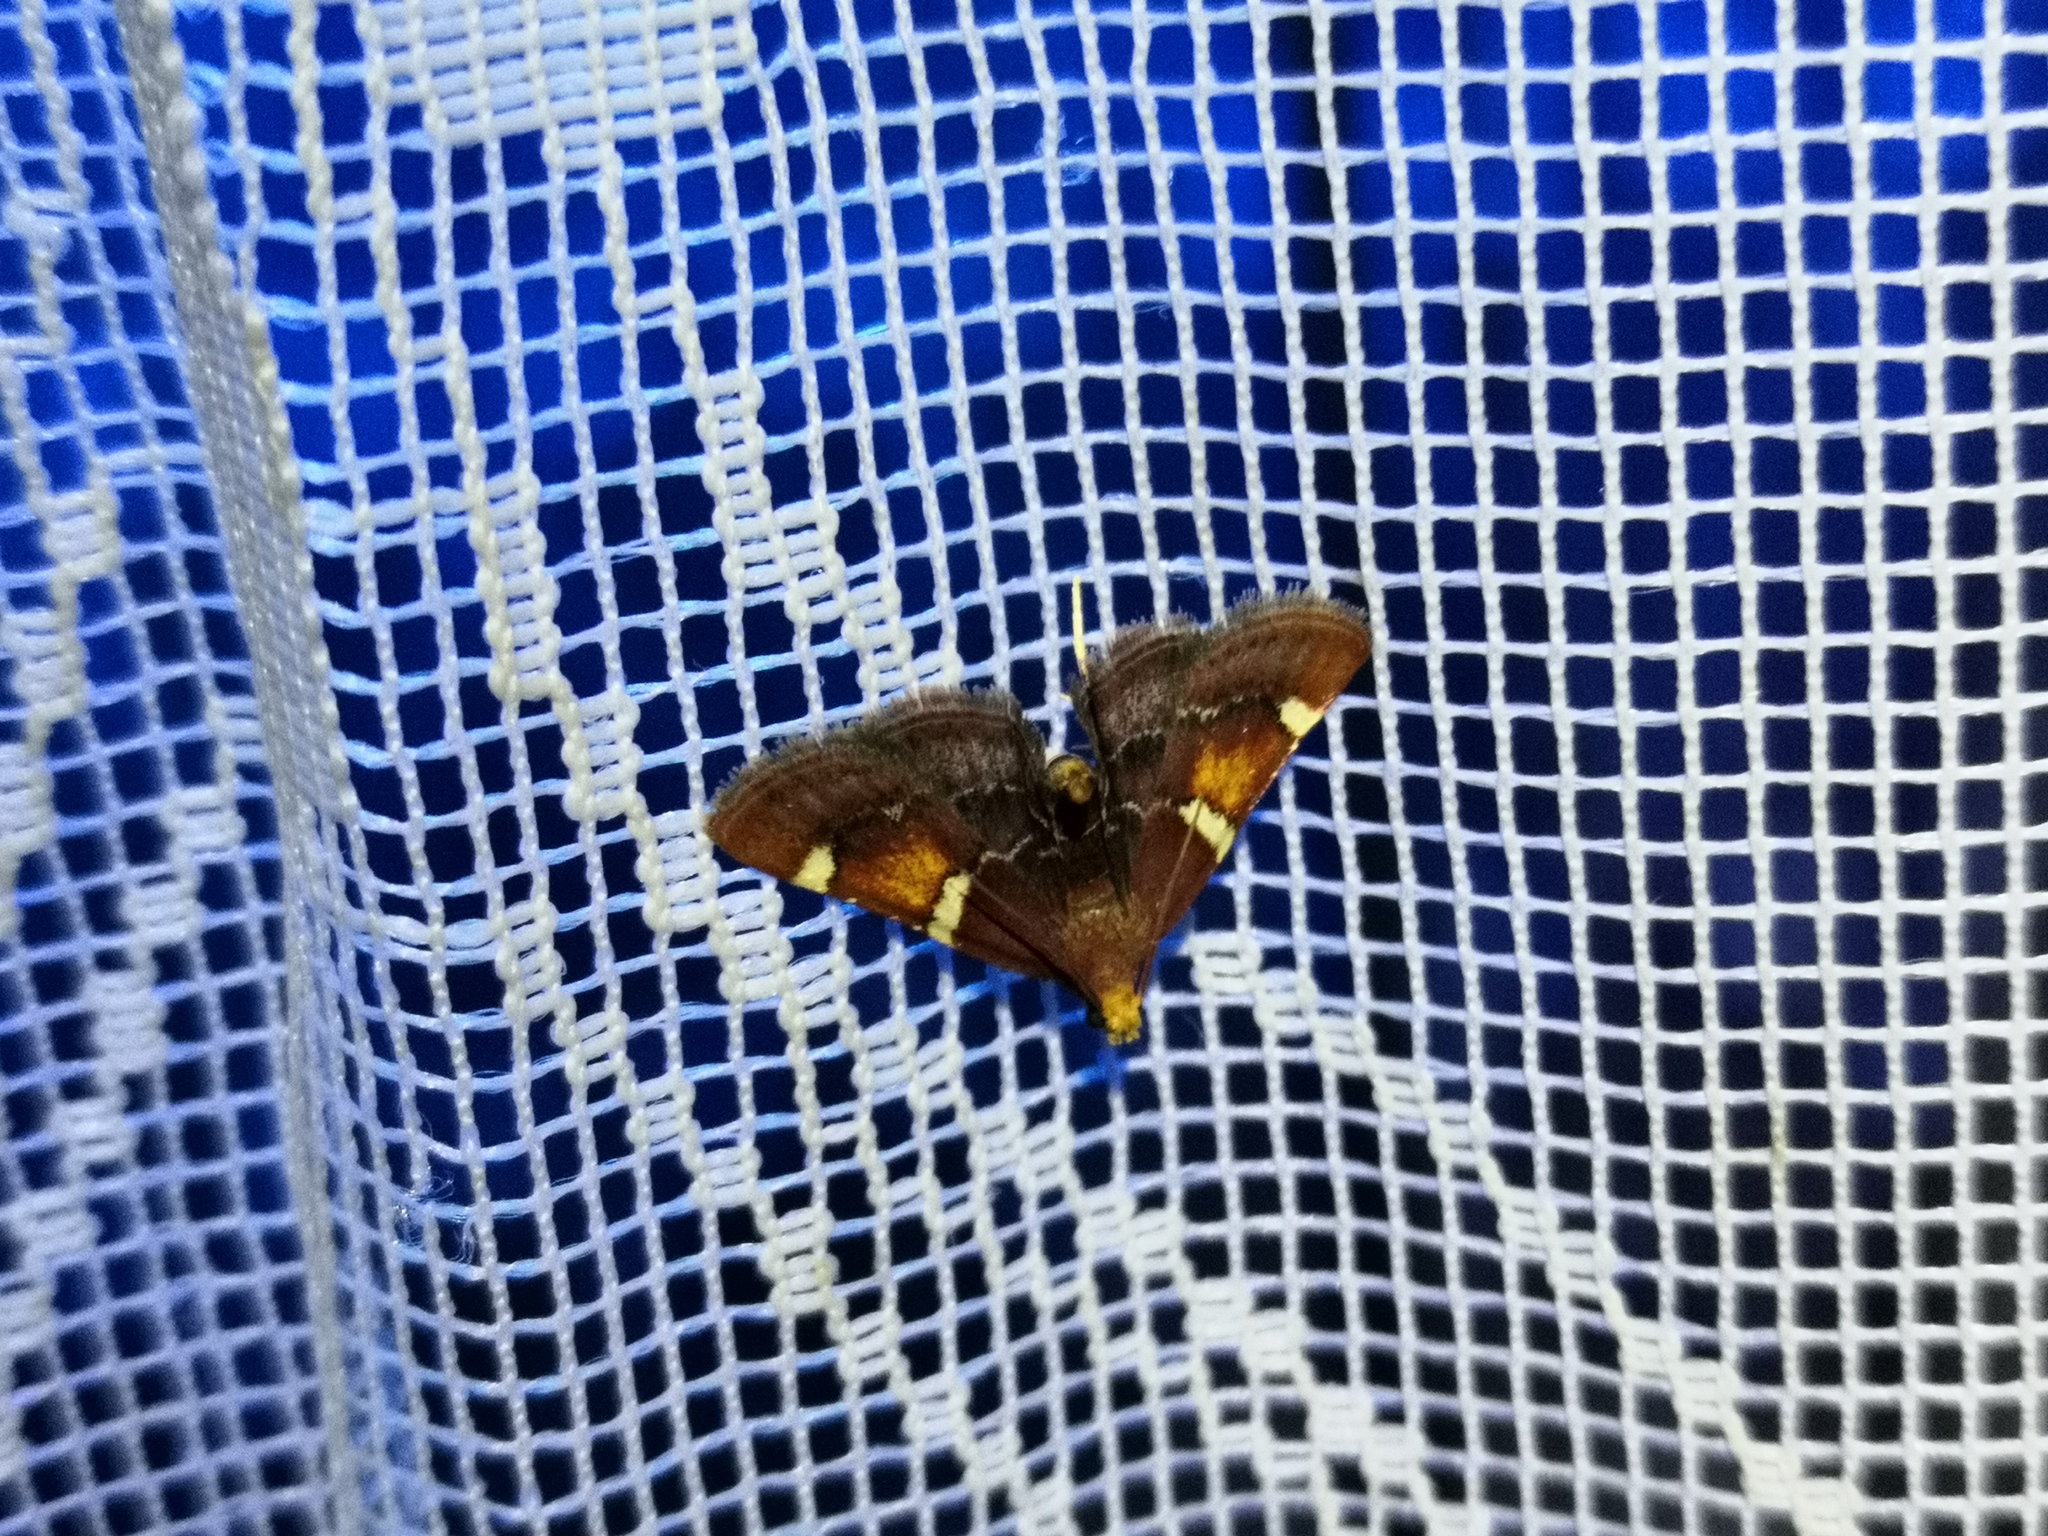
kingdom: Animalia
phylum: Arthropoda
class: Insecta
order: Lepidoptera
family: Pyralidae
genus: Pyralis
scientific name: Pyralis regalis
